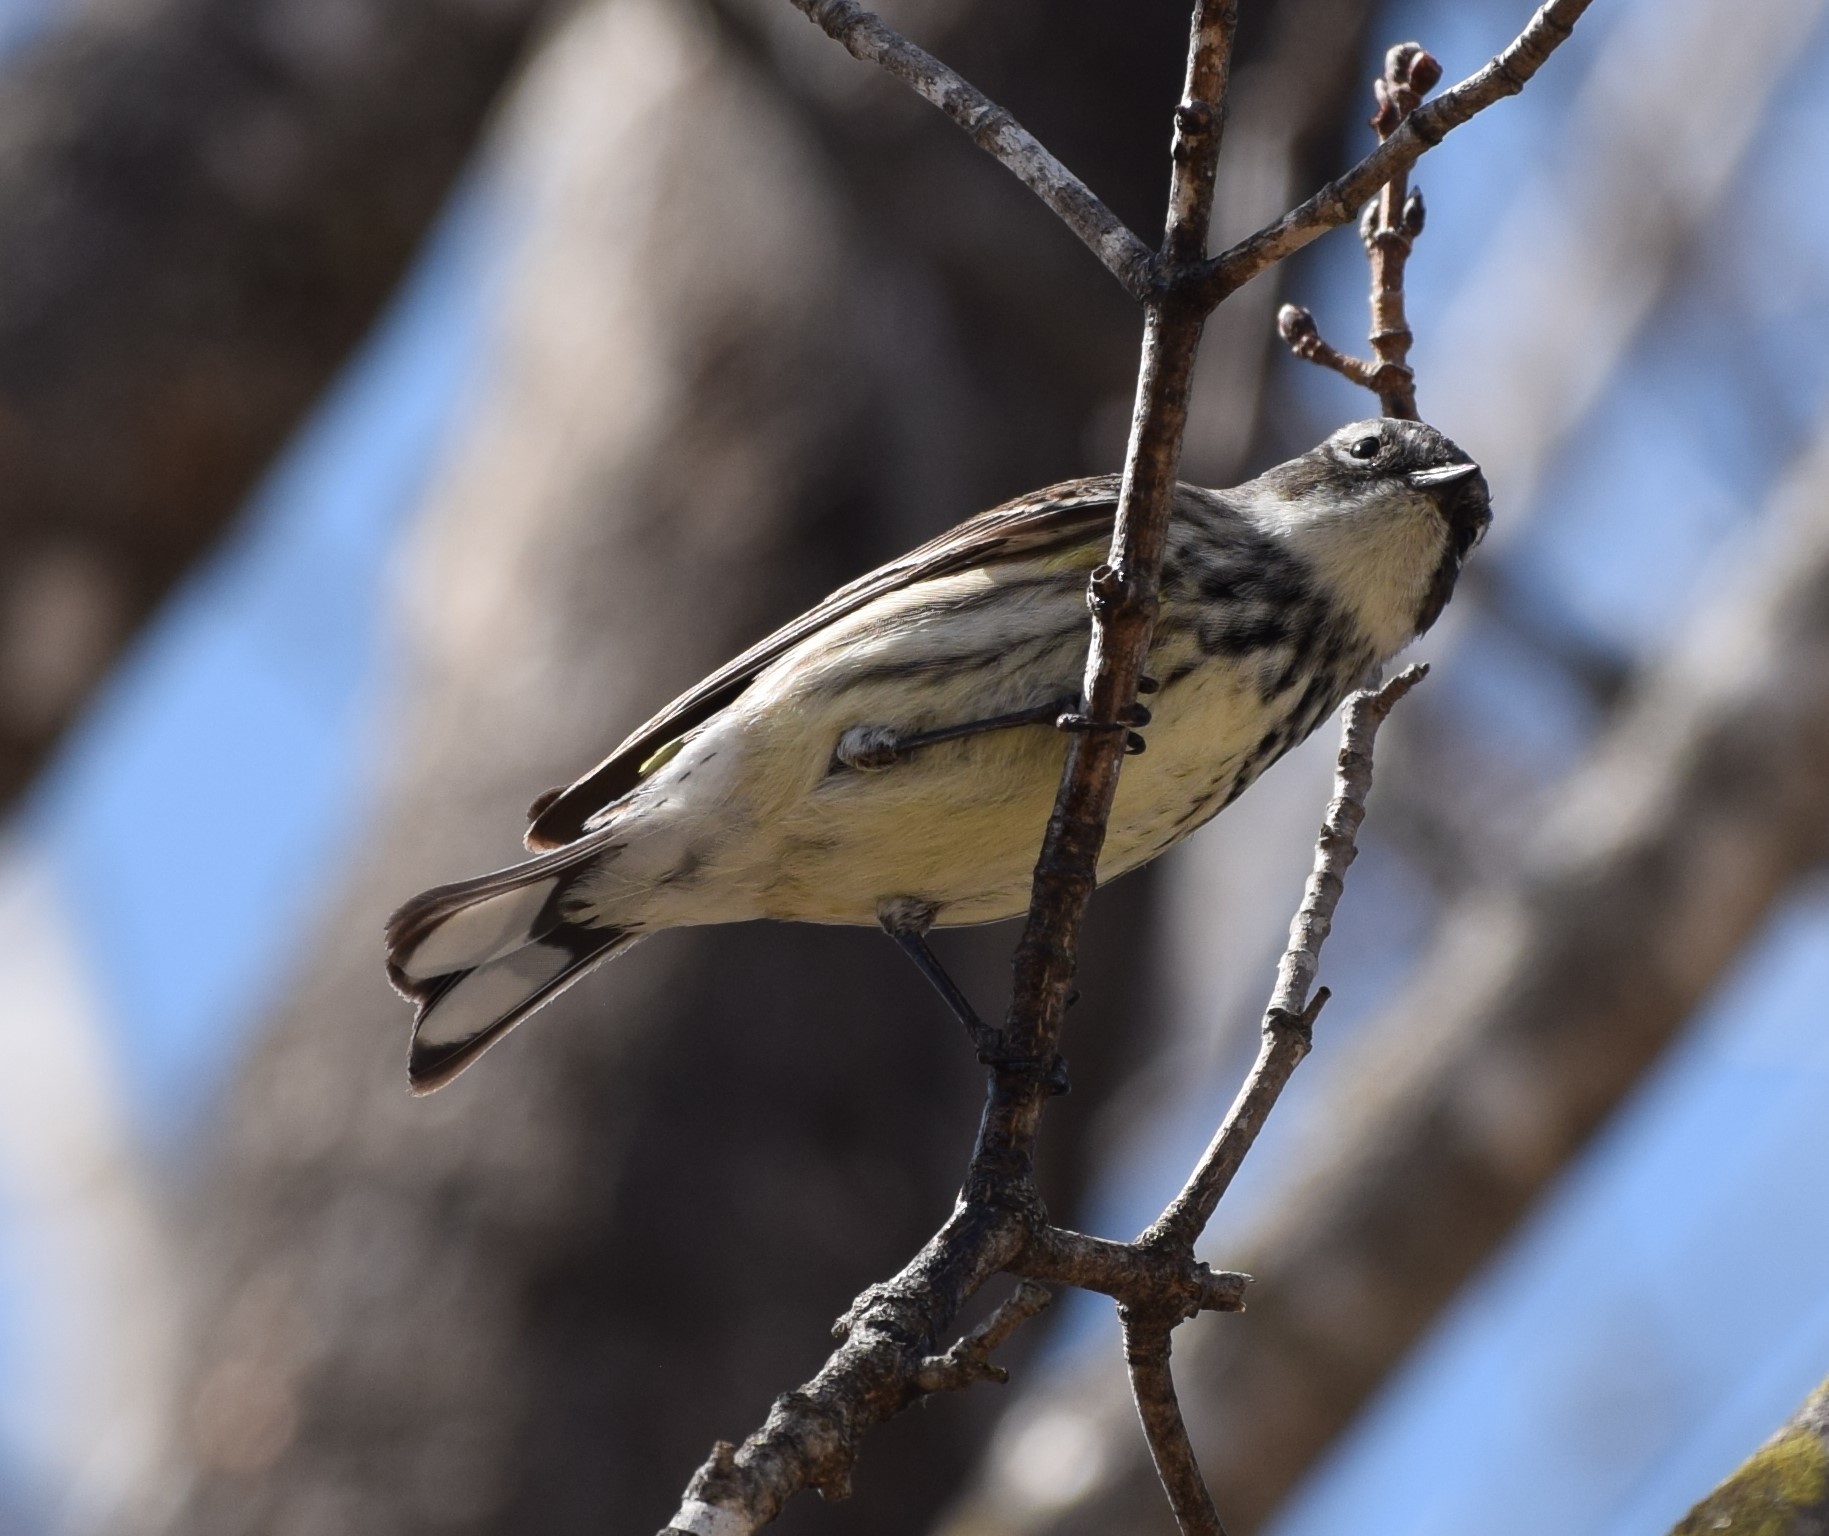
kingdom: Animalia
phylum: Chordata
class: Aves
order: Passeriformes
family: Parulidae
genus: Setophaga
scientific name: Setophaga coronata
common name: Myrtle warbler
